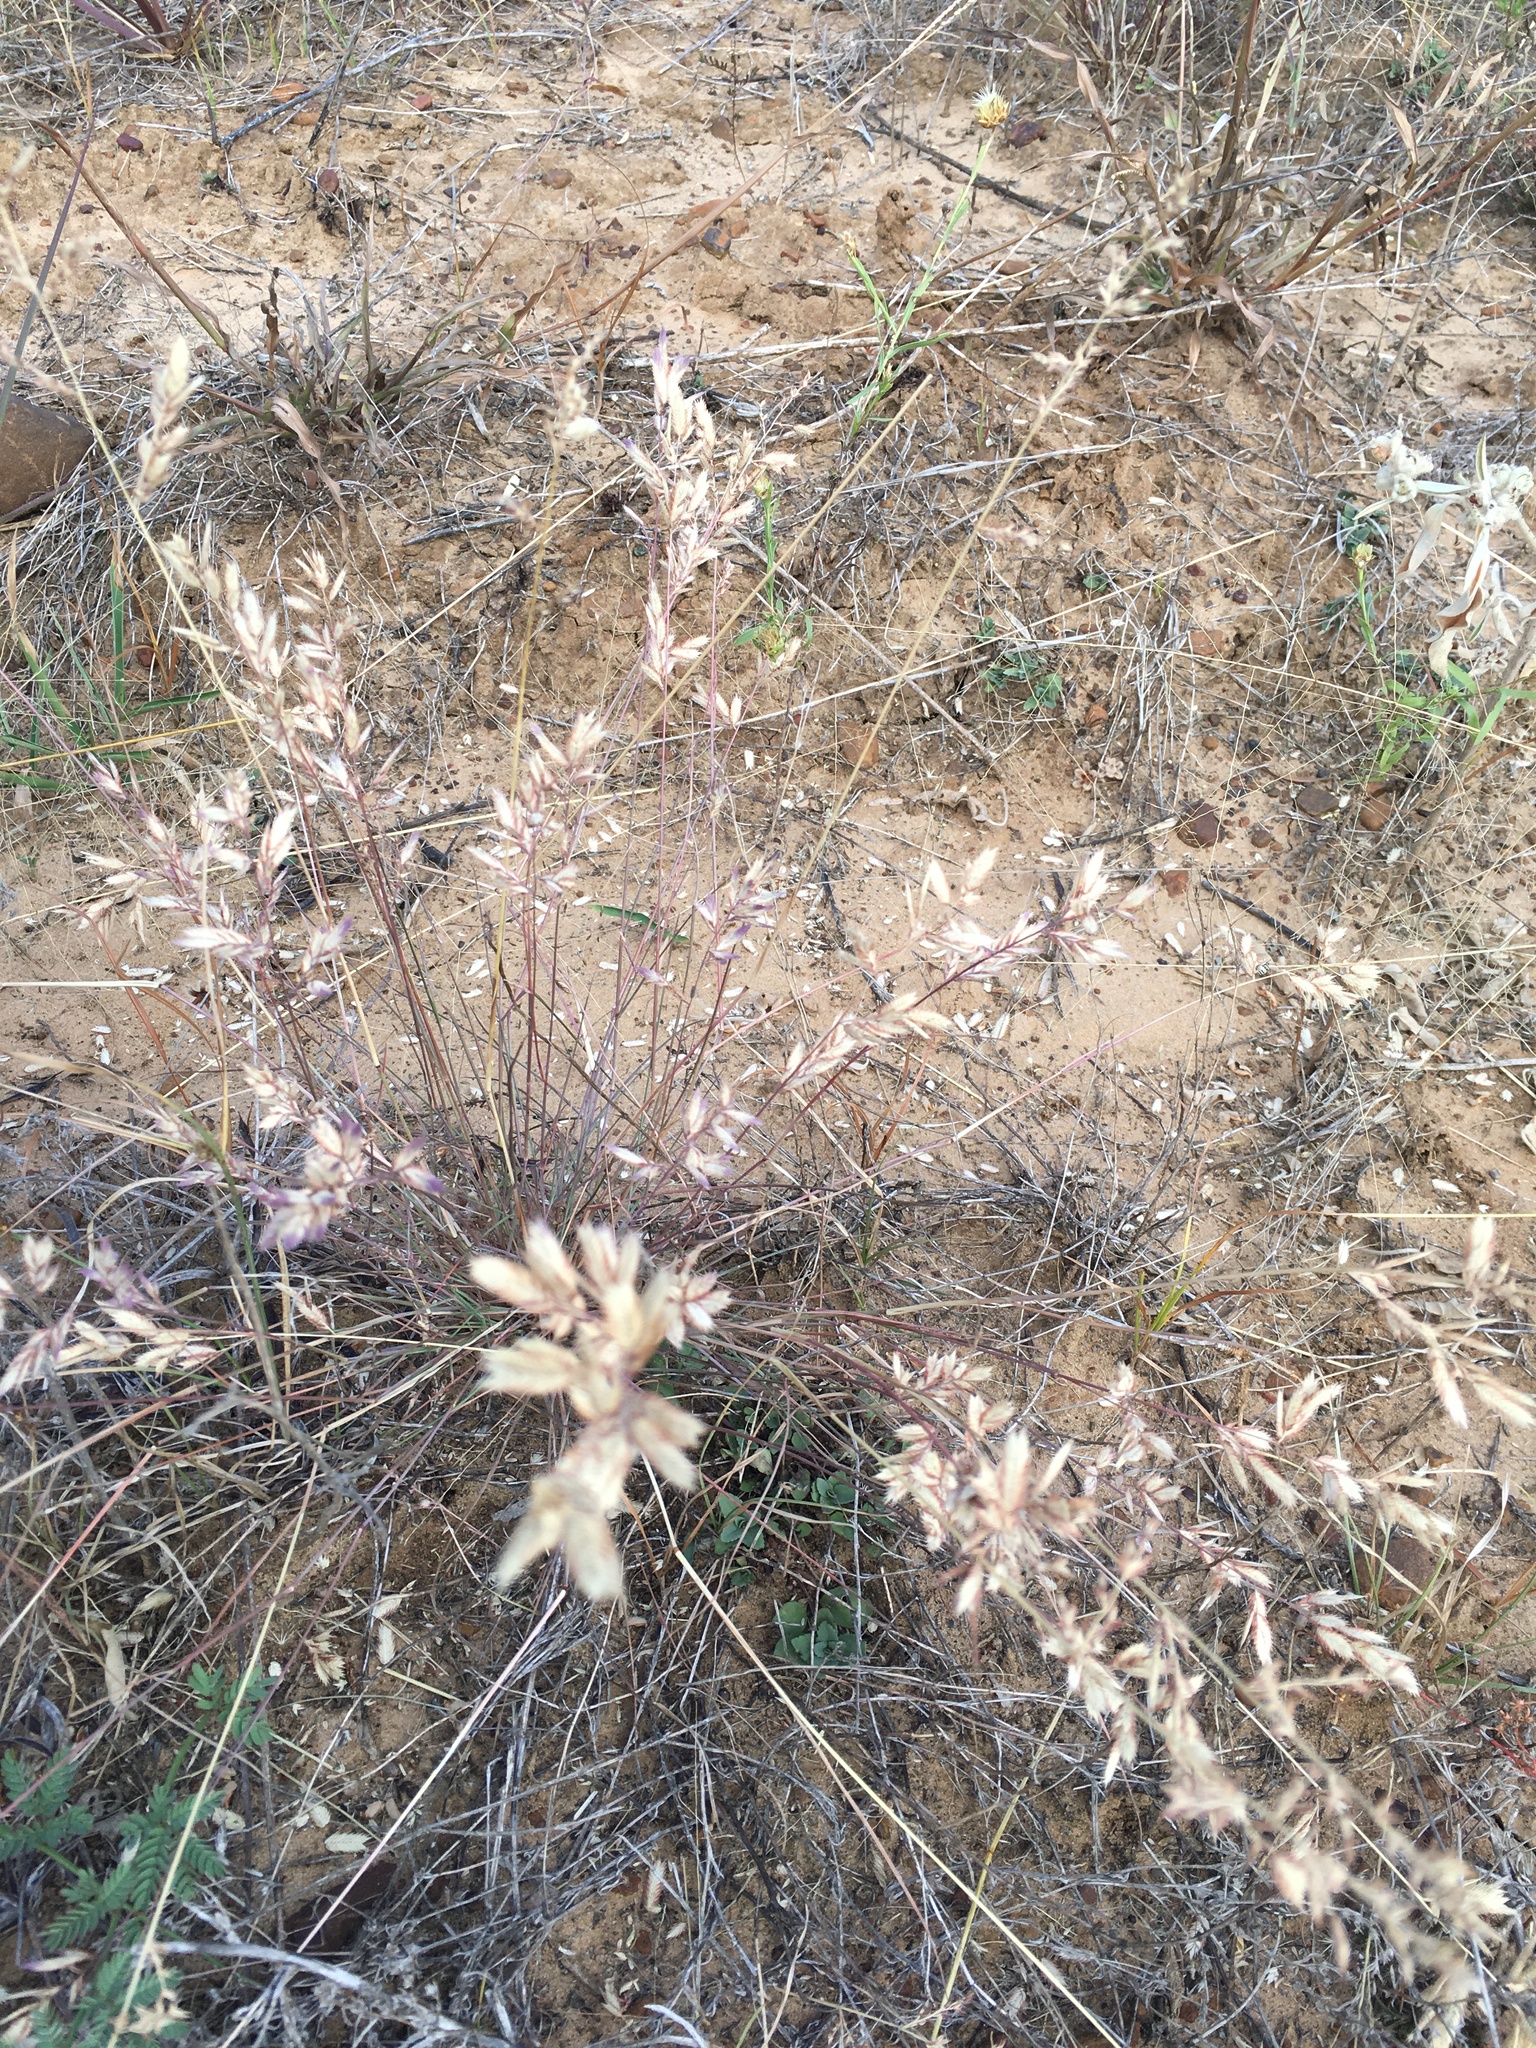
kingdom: Plantae
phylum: Tracheophyta
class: Liliopsida
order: Poales
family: Poaceae
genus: Eragrostis
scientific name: Eragrostis secundiflora
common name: Red love grass
